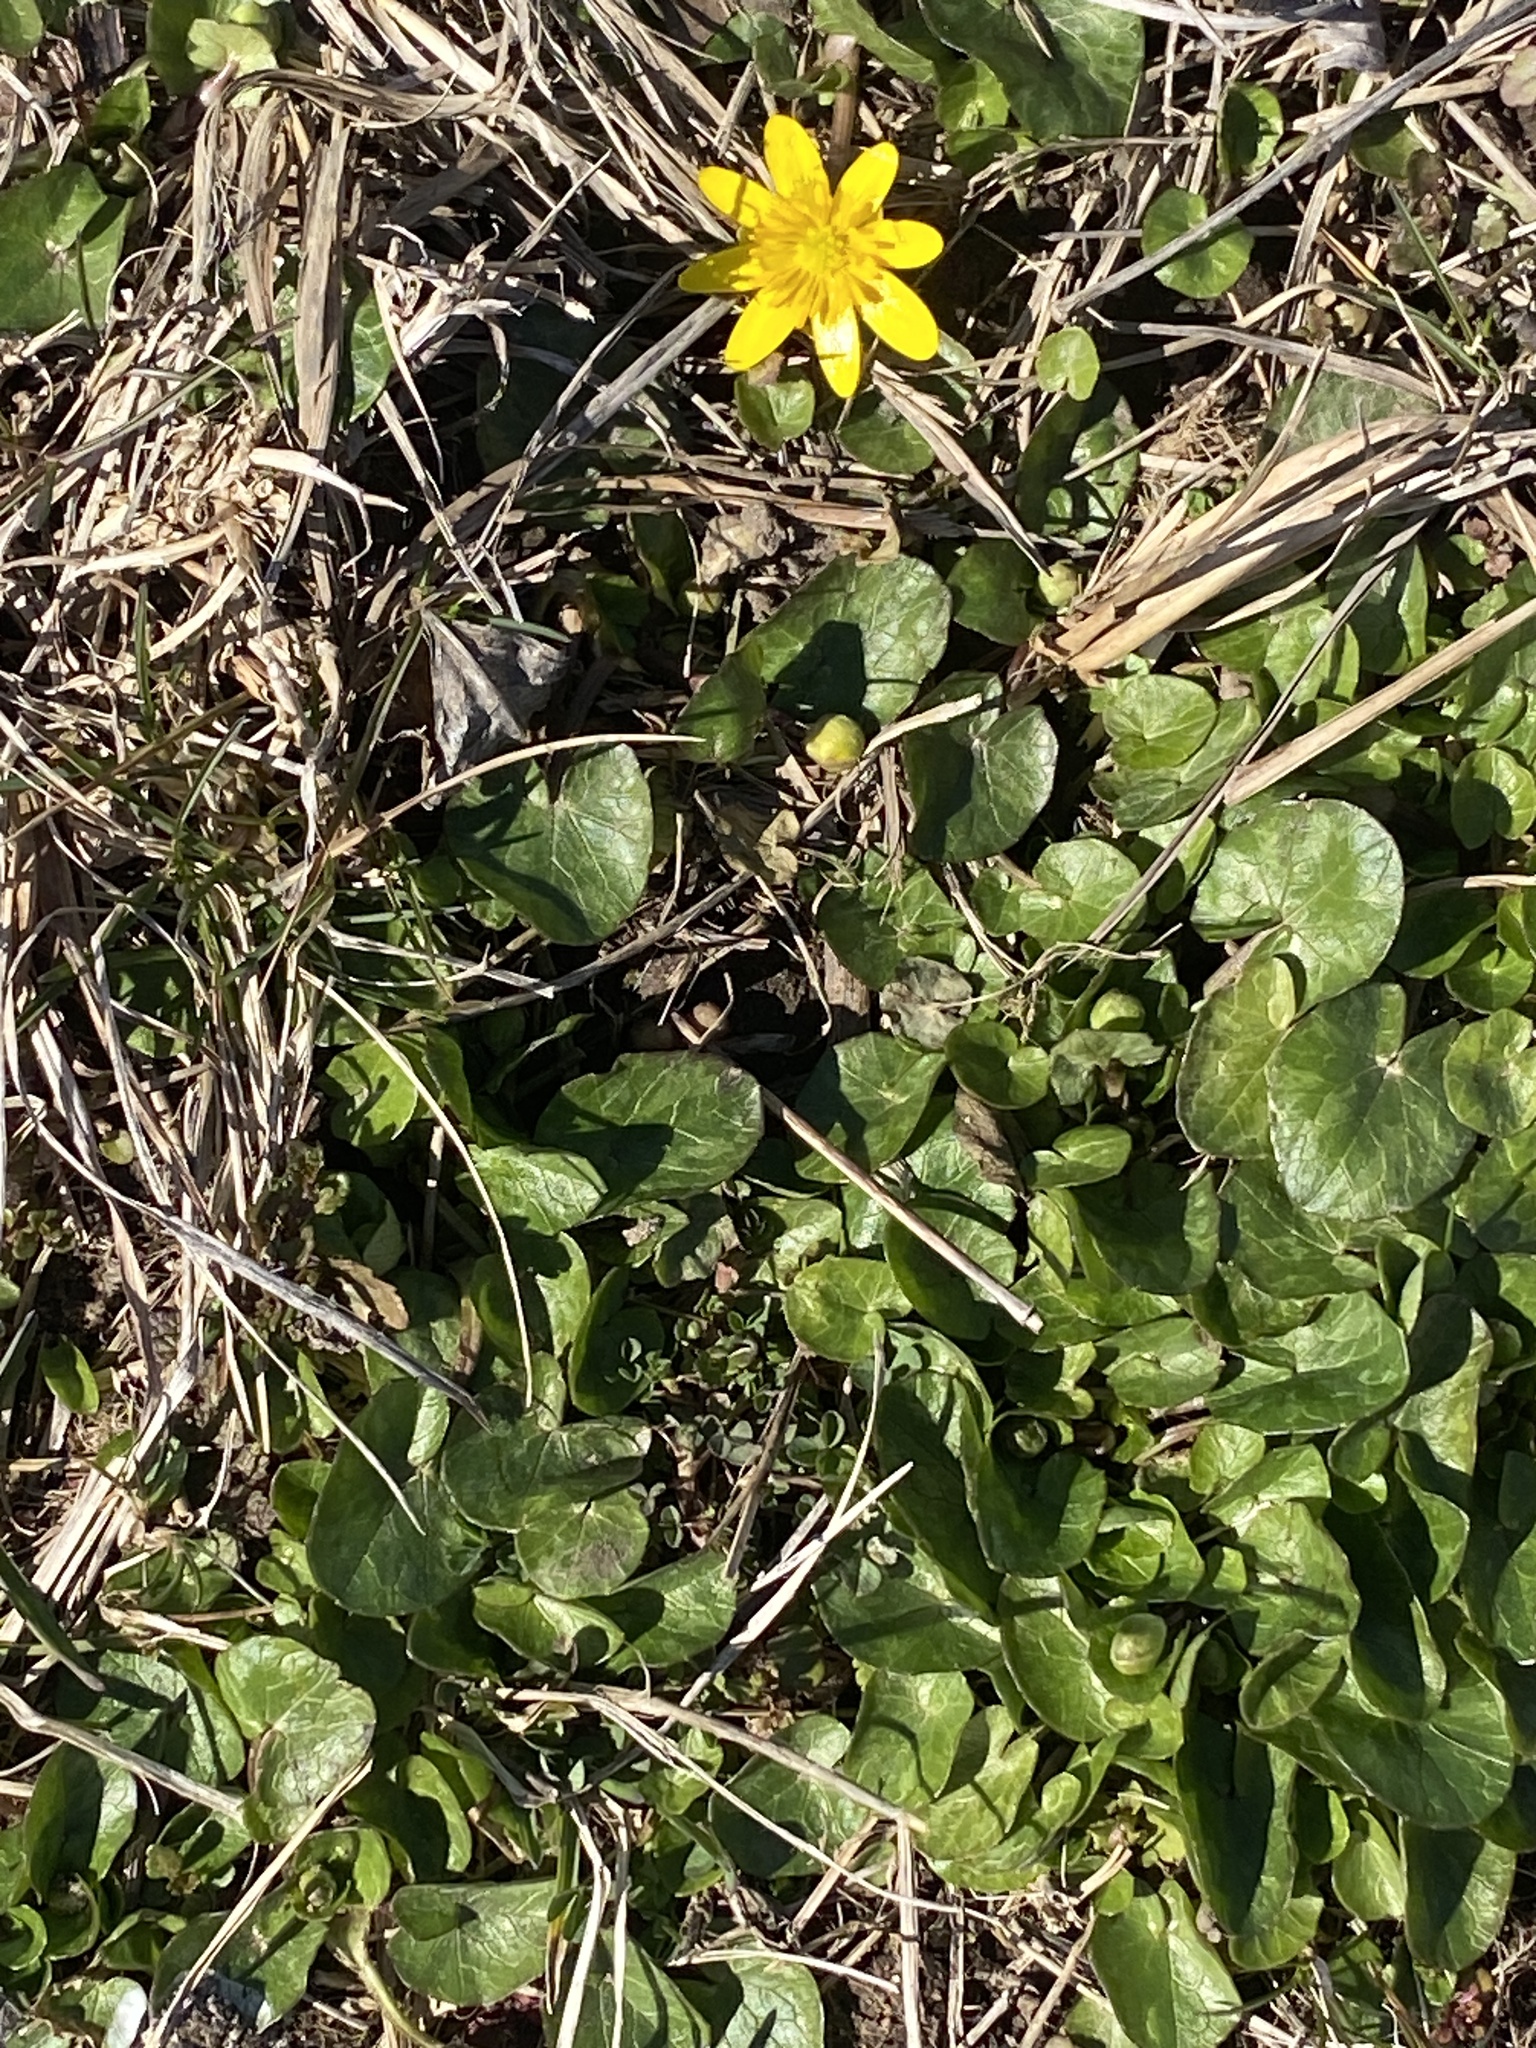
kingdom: Plantae
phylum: Tracheophyta
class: Magnoliopsida
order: Ranunculales
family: Ranunculaceae
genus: Ficaria
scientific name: Ficaria verna
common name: Lesser celandine
